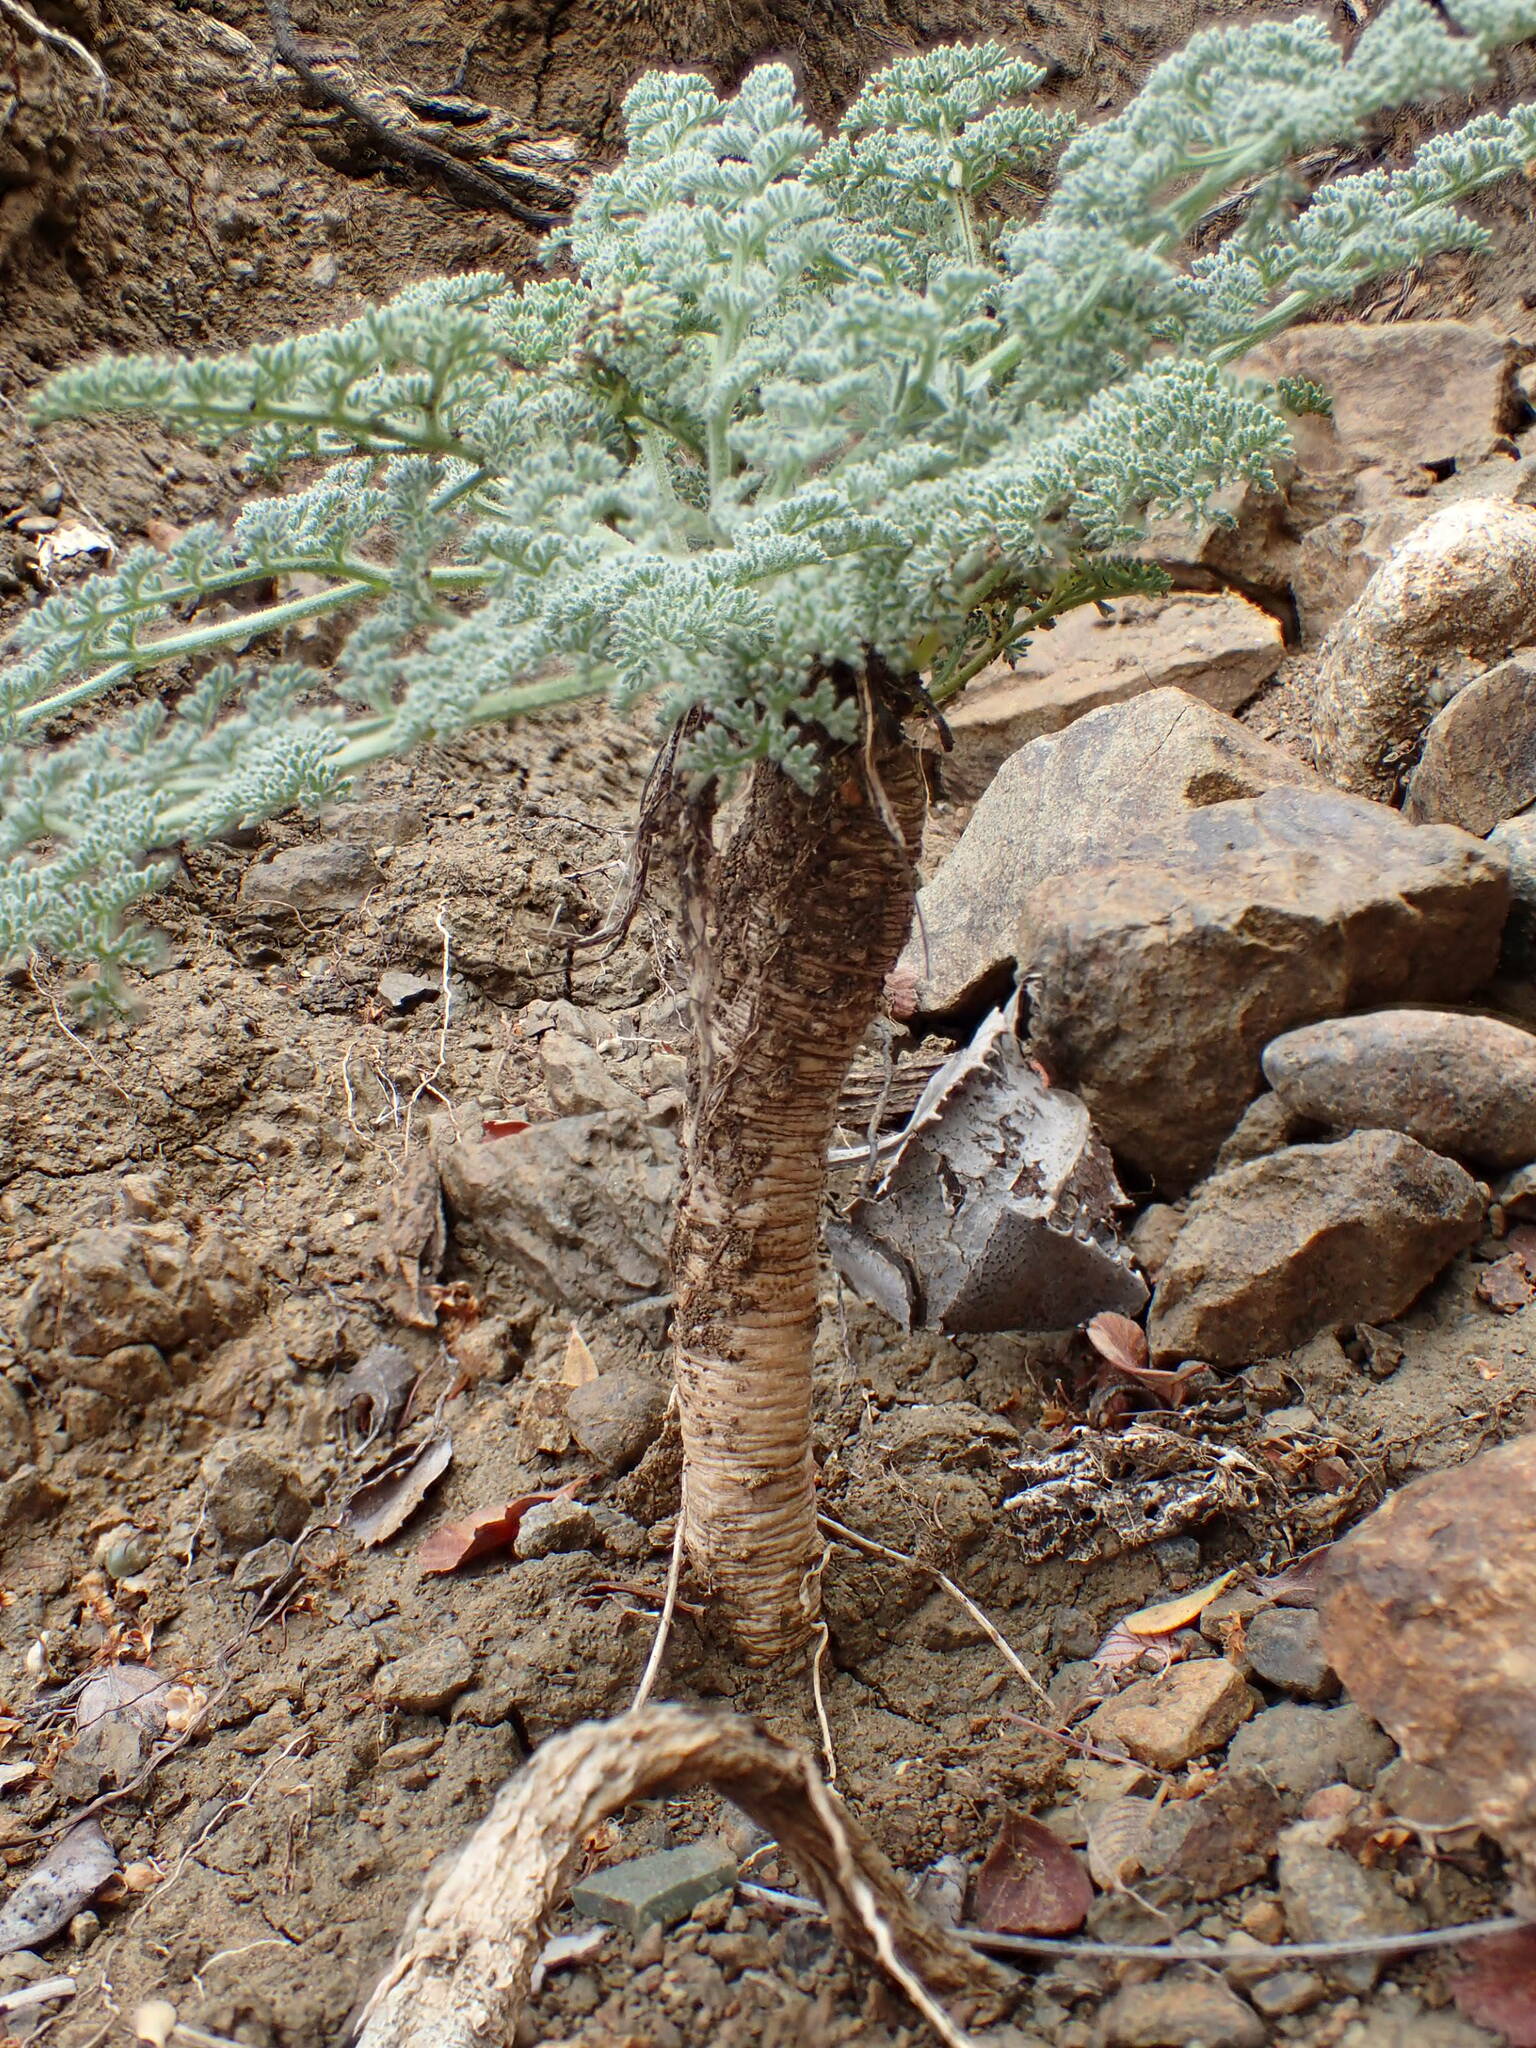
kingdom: Plantae
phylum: Tracheophyta
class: Magnoliopsida
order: Apiales
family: Apiaceae
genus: Lomatium
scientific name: Lomatium dasycarpum
